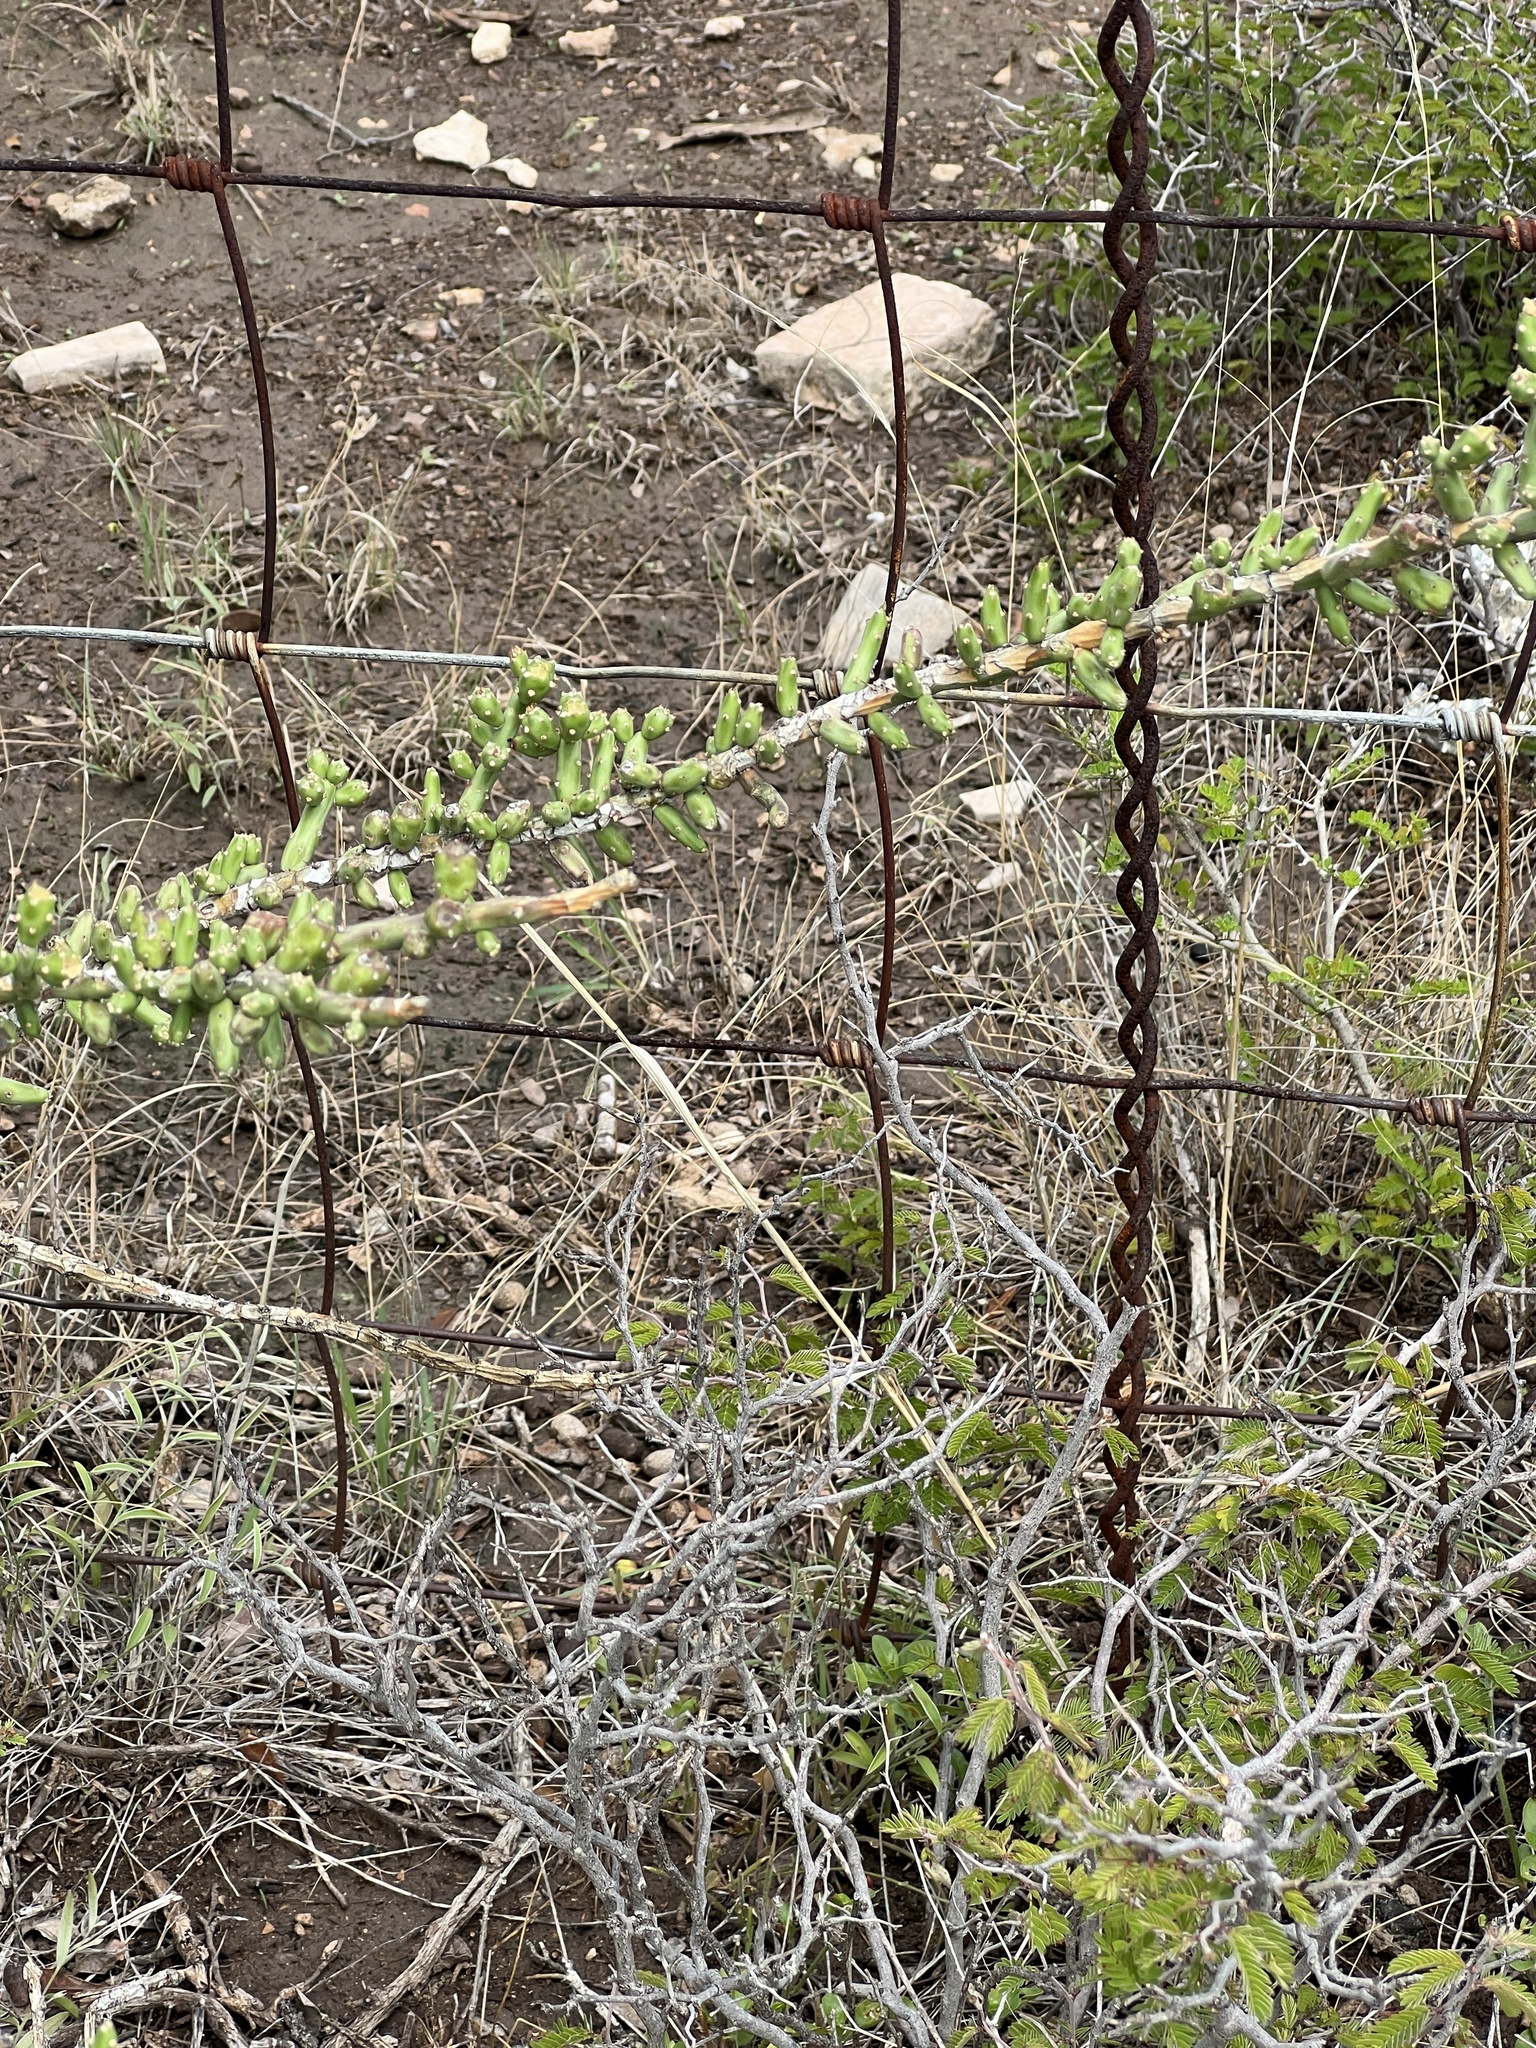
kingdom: Plantae
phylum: Tracheophyta
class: Magnoliopsida
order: Caryophyllales
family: Cactaceae
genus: Cylindropuntia
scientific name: Cylindropuntia leptocaulis
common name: Christmas cactus
